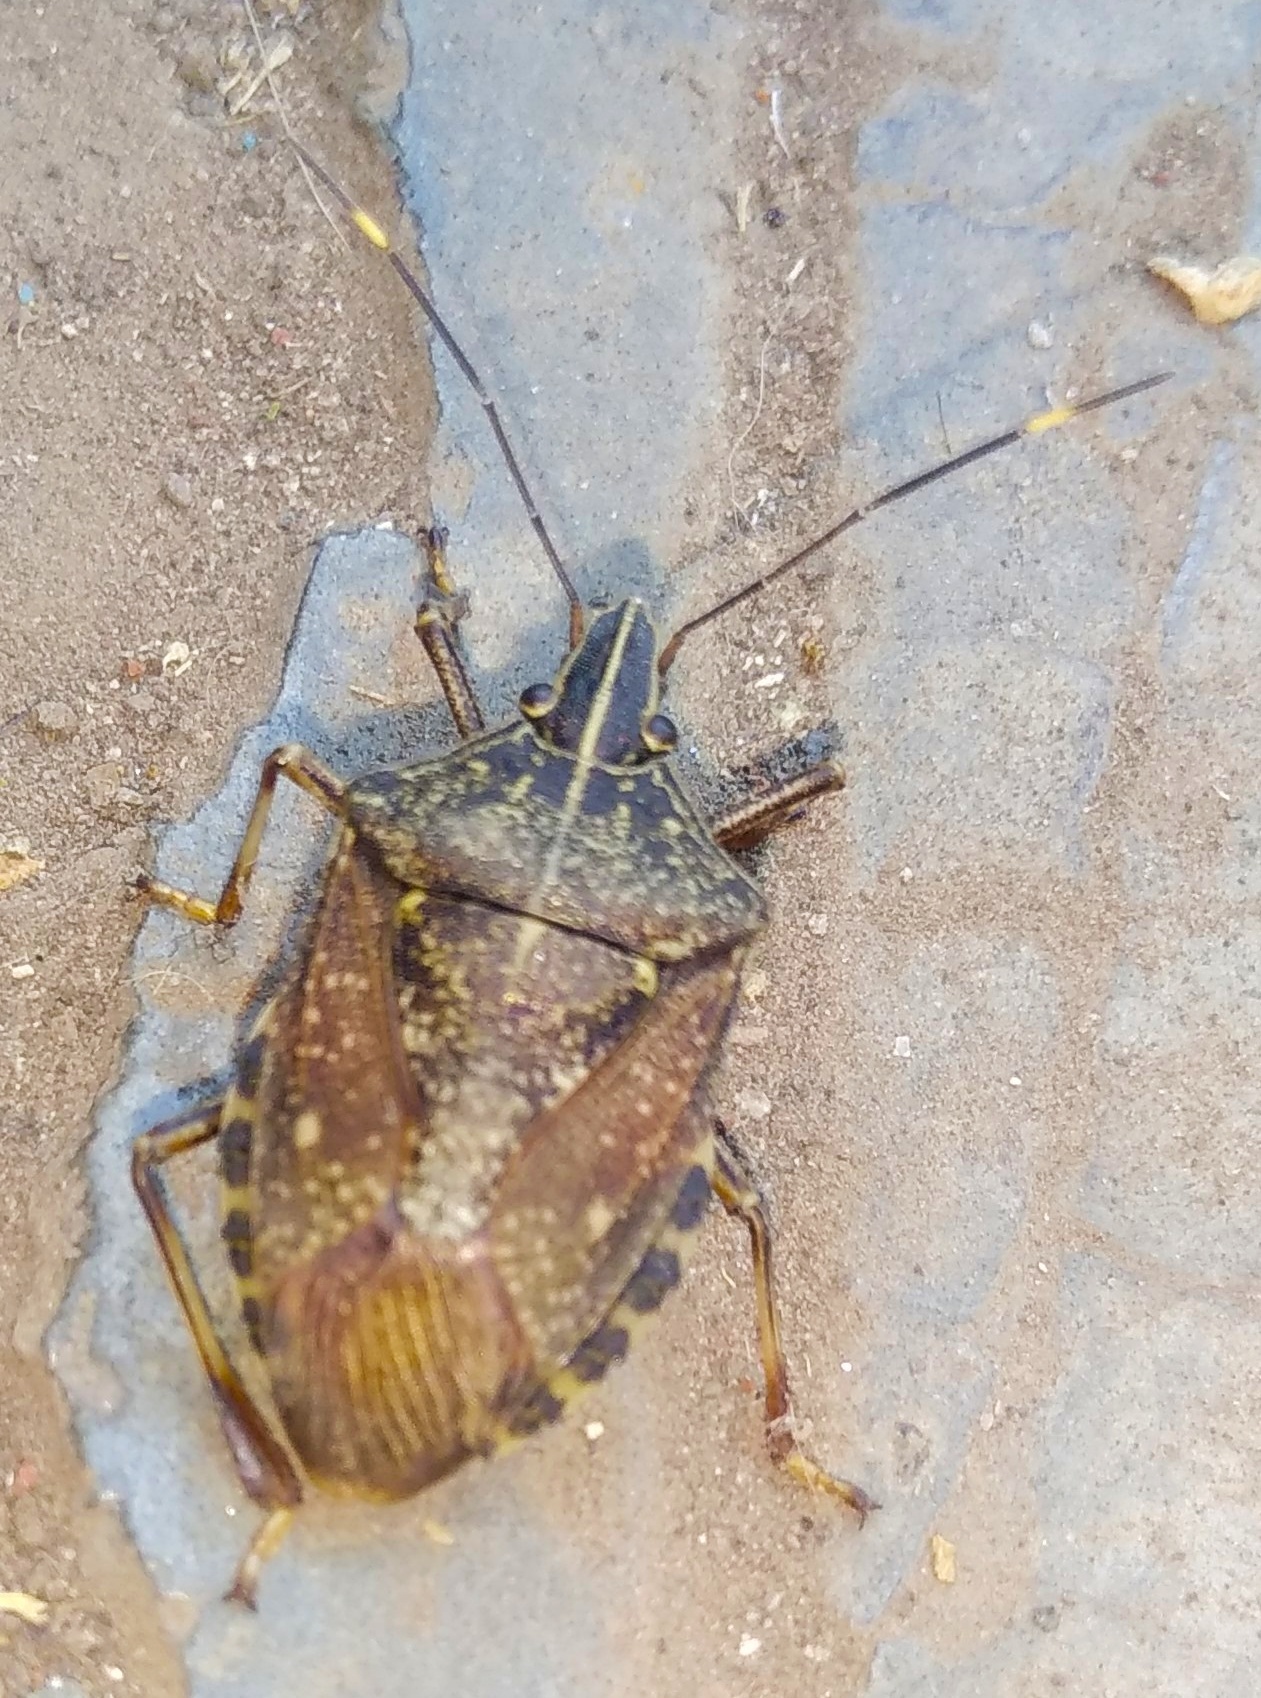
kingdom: Animalia
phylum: Arthropoda
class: Insecta
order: Hemiptera
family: Pentatomidae
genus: Erthesina
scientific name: Erthesina acuminata
